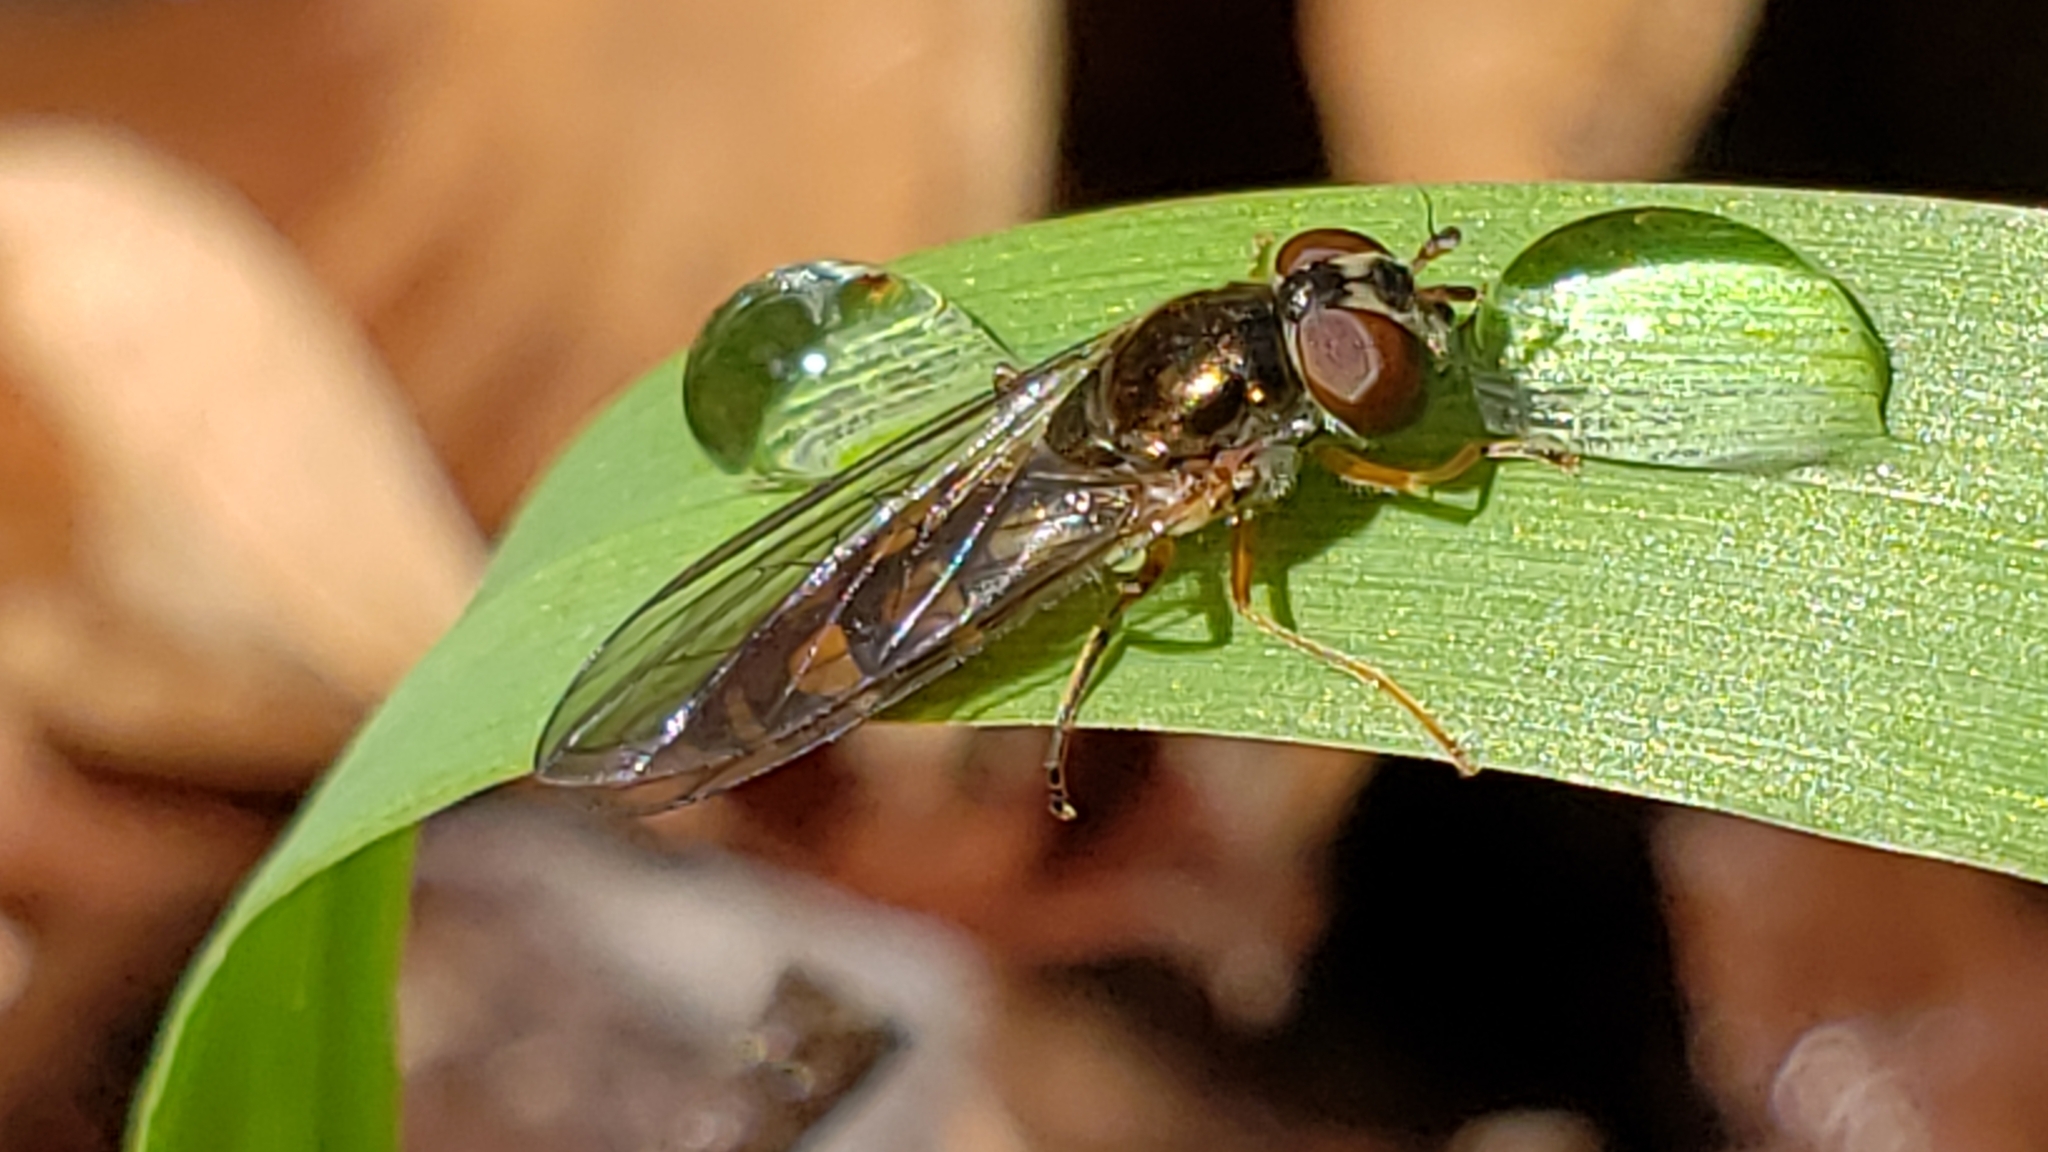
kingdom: Animalia
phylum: Arthropoda
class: Insecta
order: Diptera
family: Syrphidae
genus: Melanostoma
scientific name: Melanostoma mellina
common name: Hover fly
